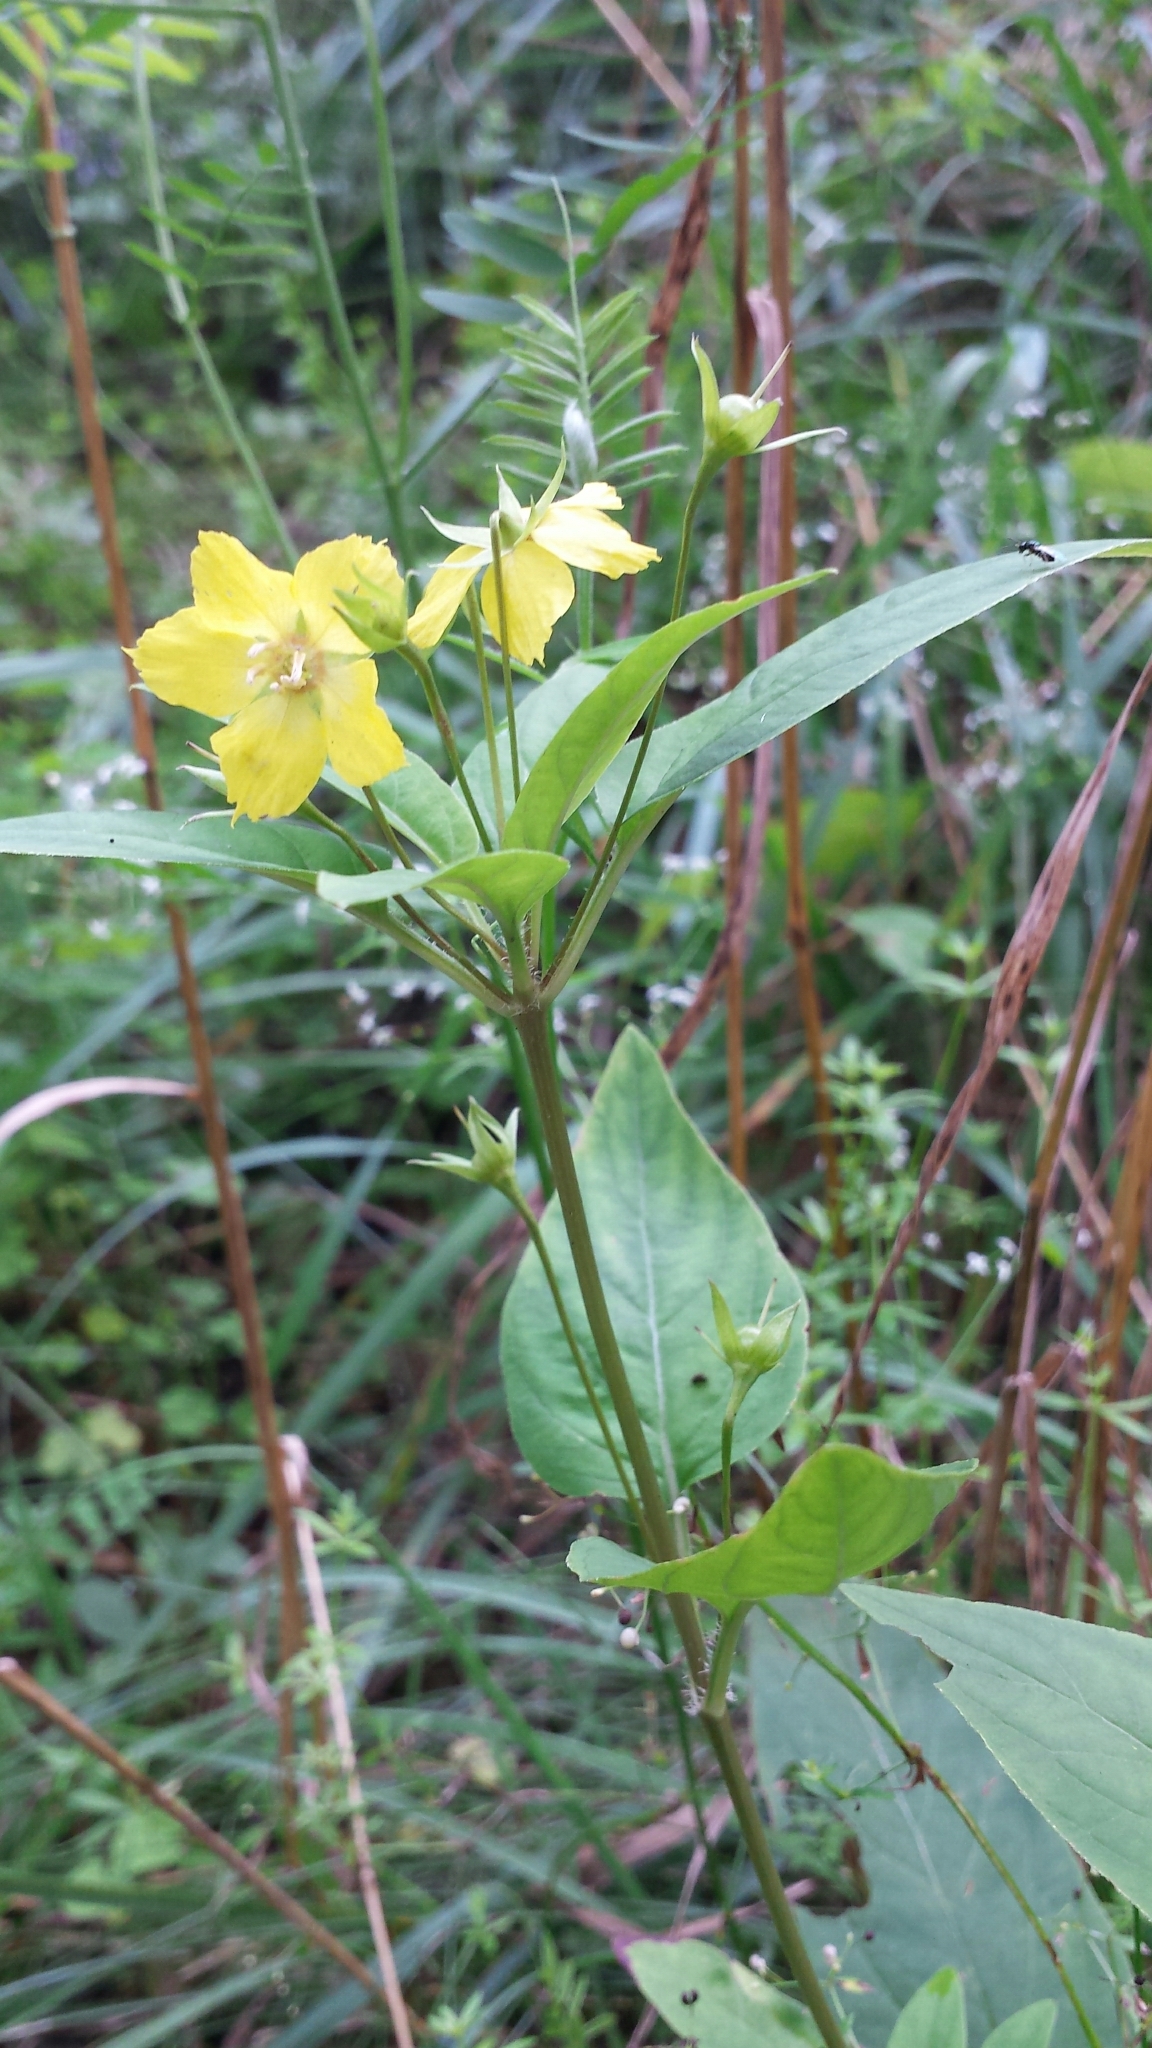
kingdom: Plantae
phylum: Tracheophyta
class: Magnoliopsida
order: Ericales
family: Primulaceae
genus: Lysimachia
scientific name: Lysimachia ciliata
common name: Fringed loosestrife
